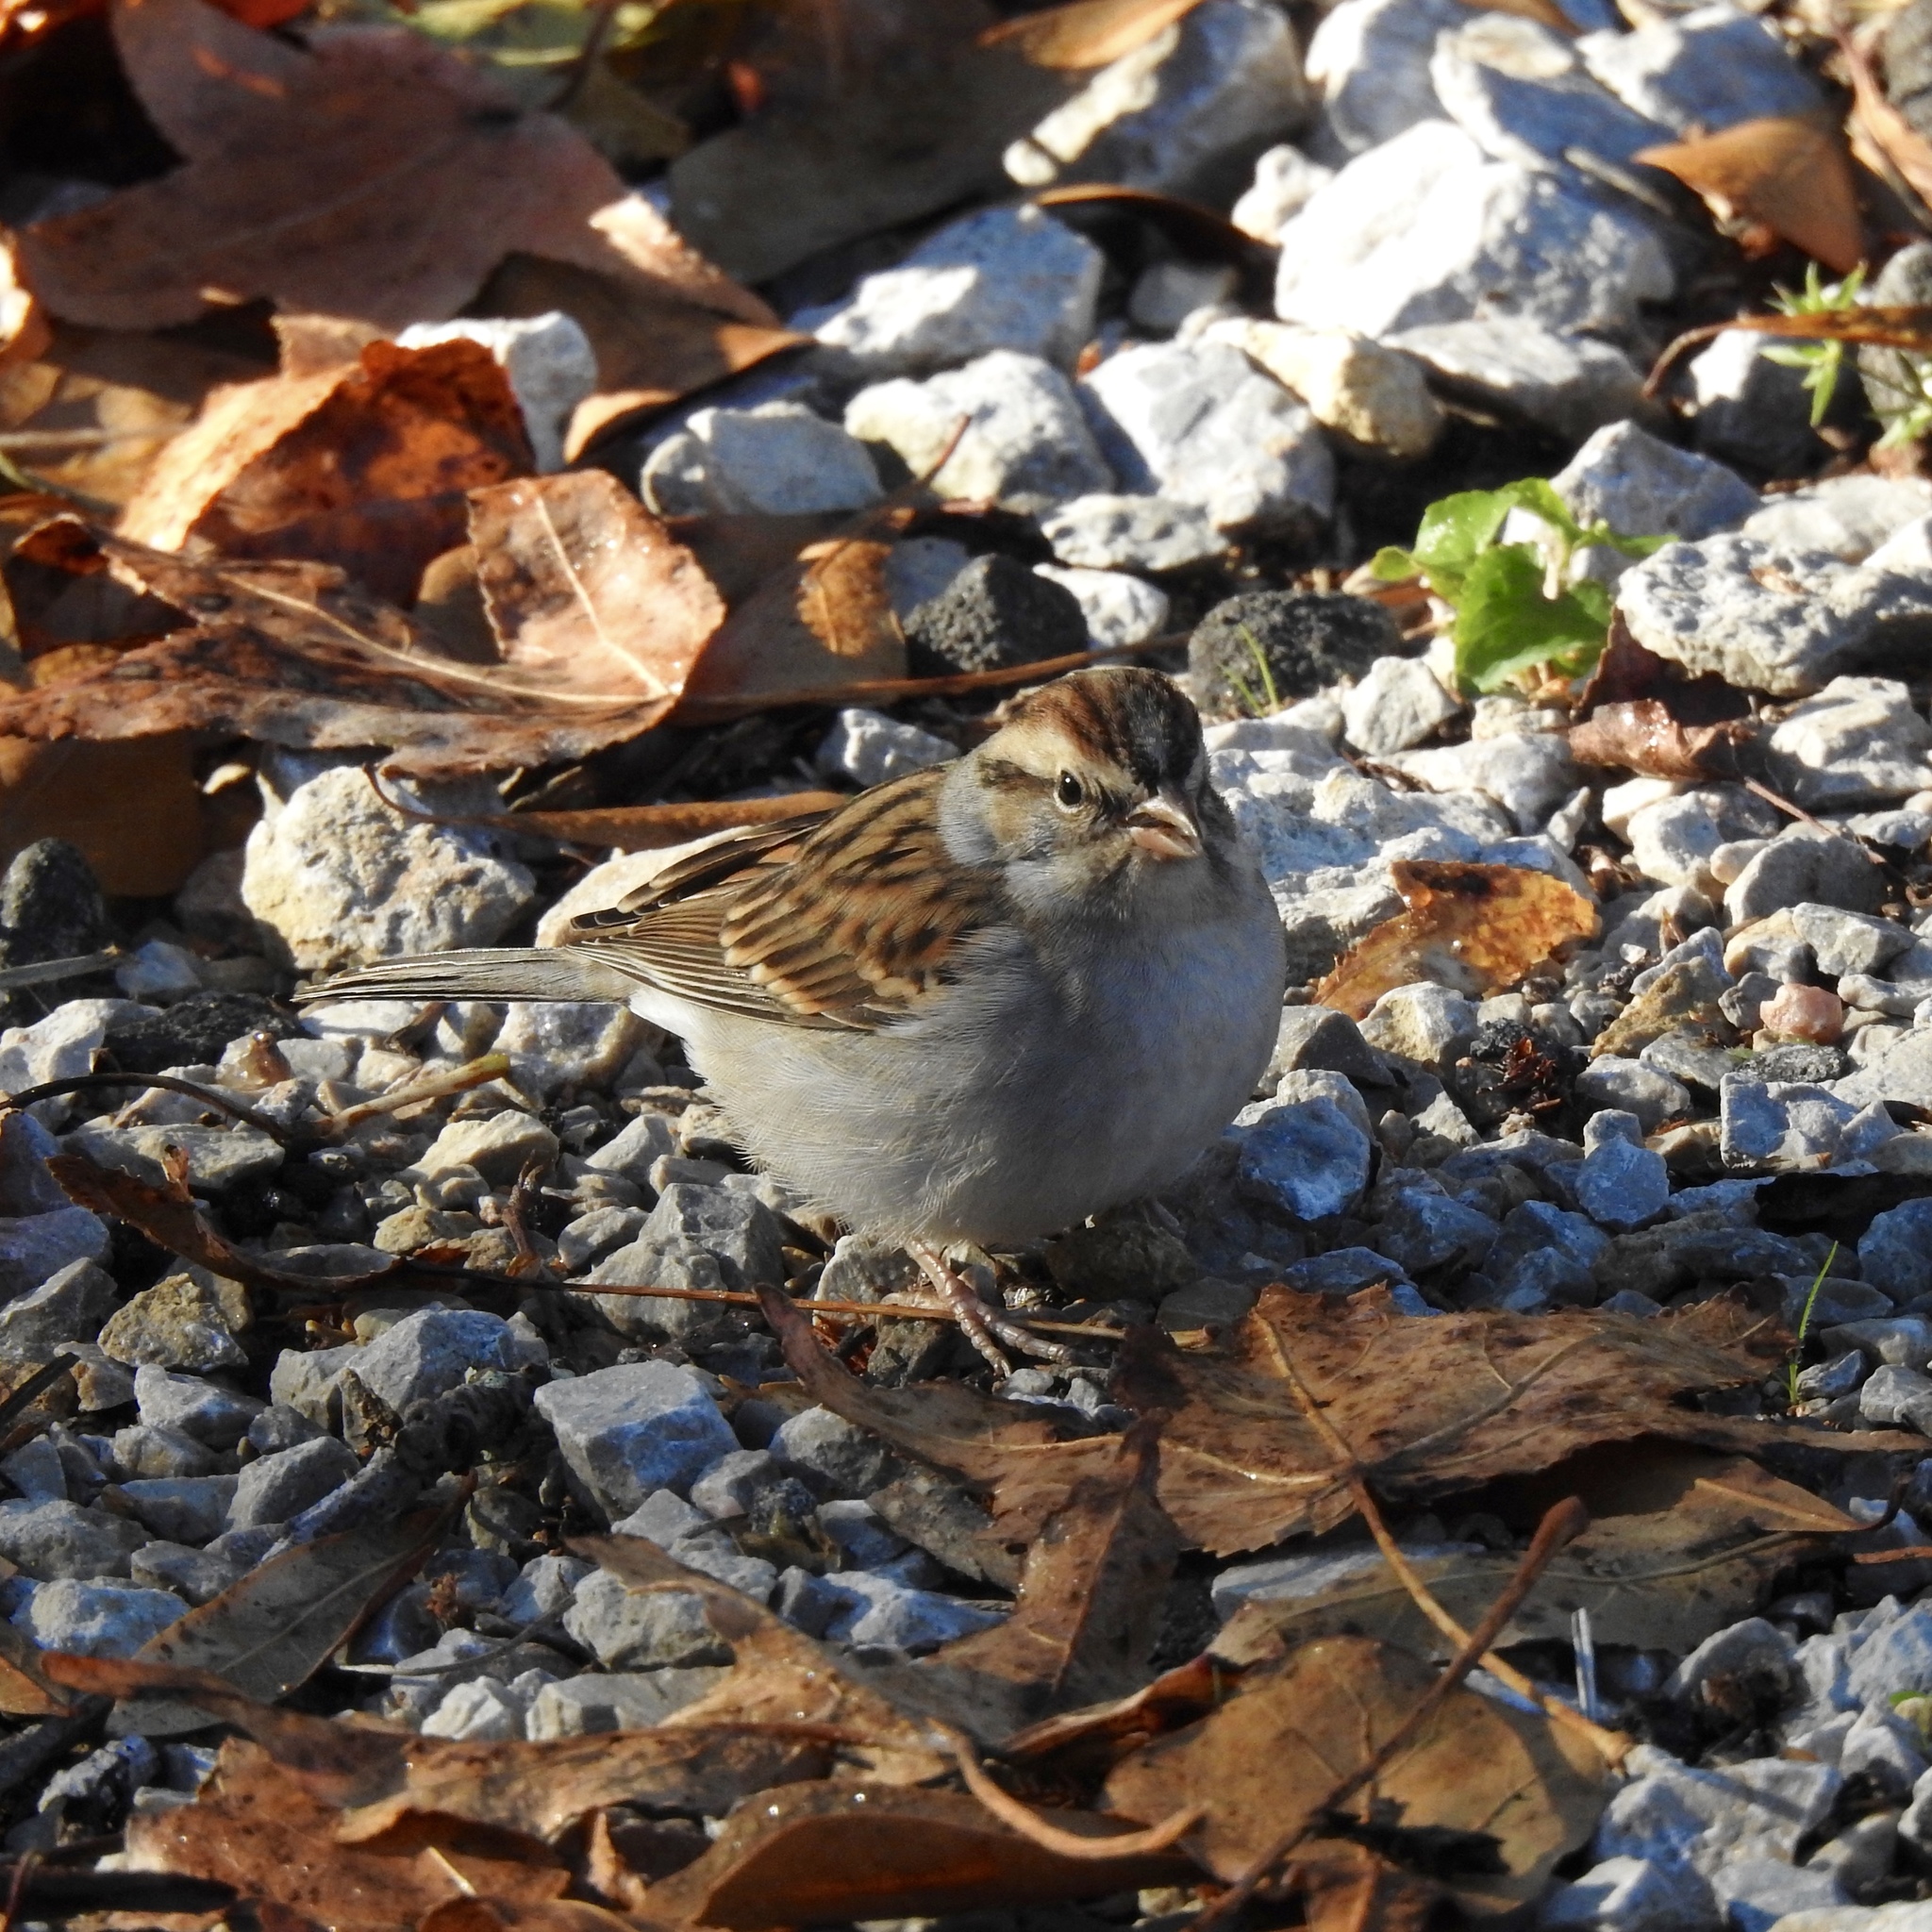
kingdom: Animalia
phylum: Chordata
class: Aves
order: Passeriformes
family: Passerellidae
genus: Spizella
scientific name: Spizella passerina
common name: Chipping sparrow
